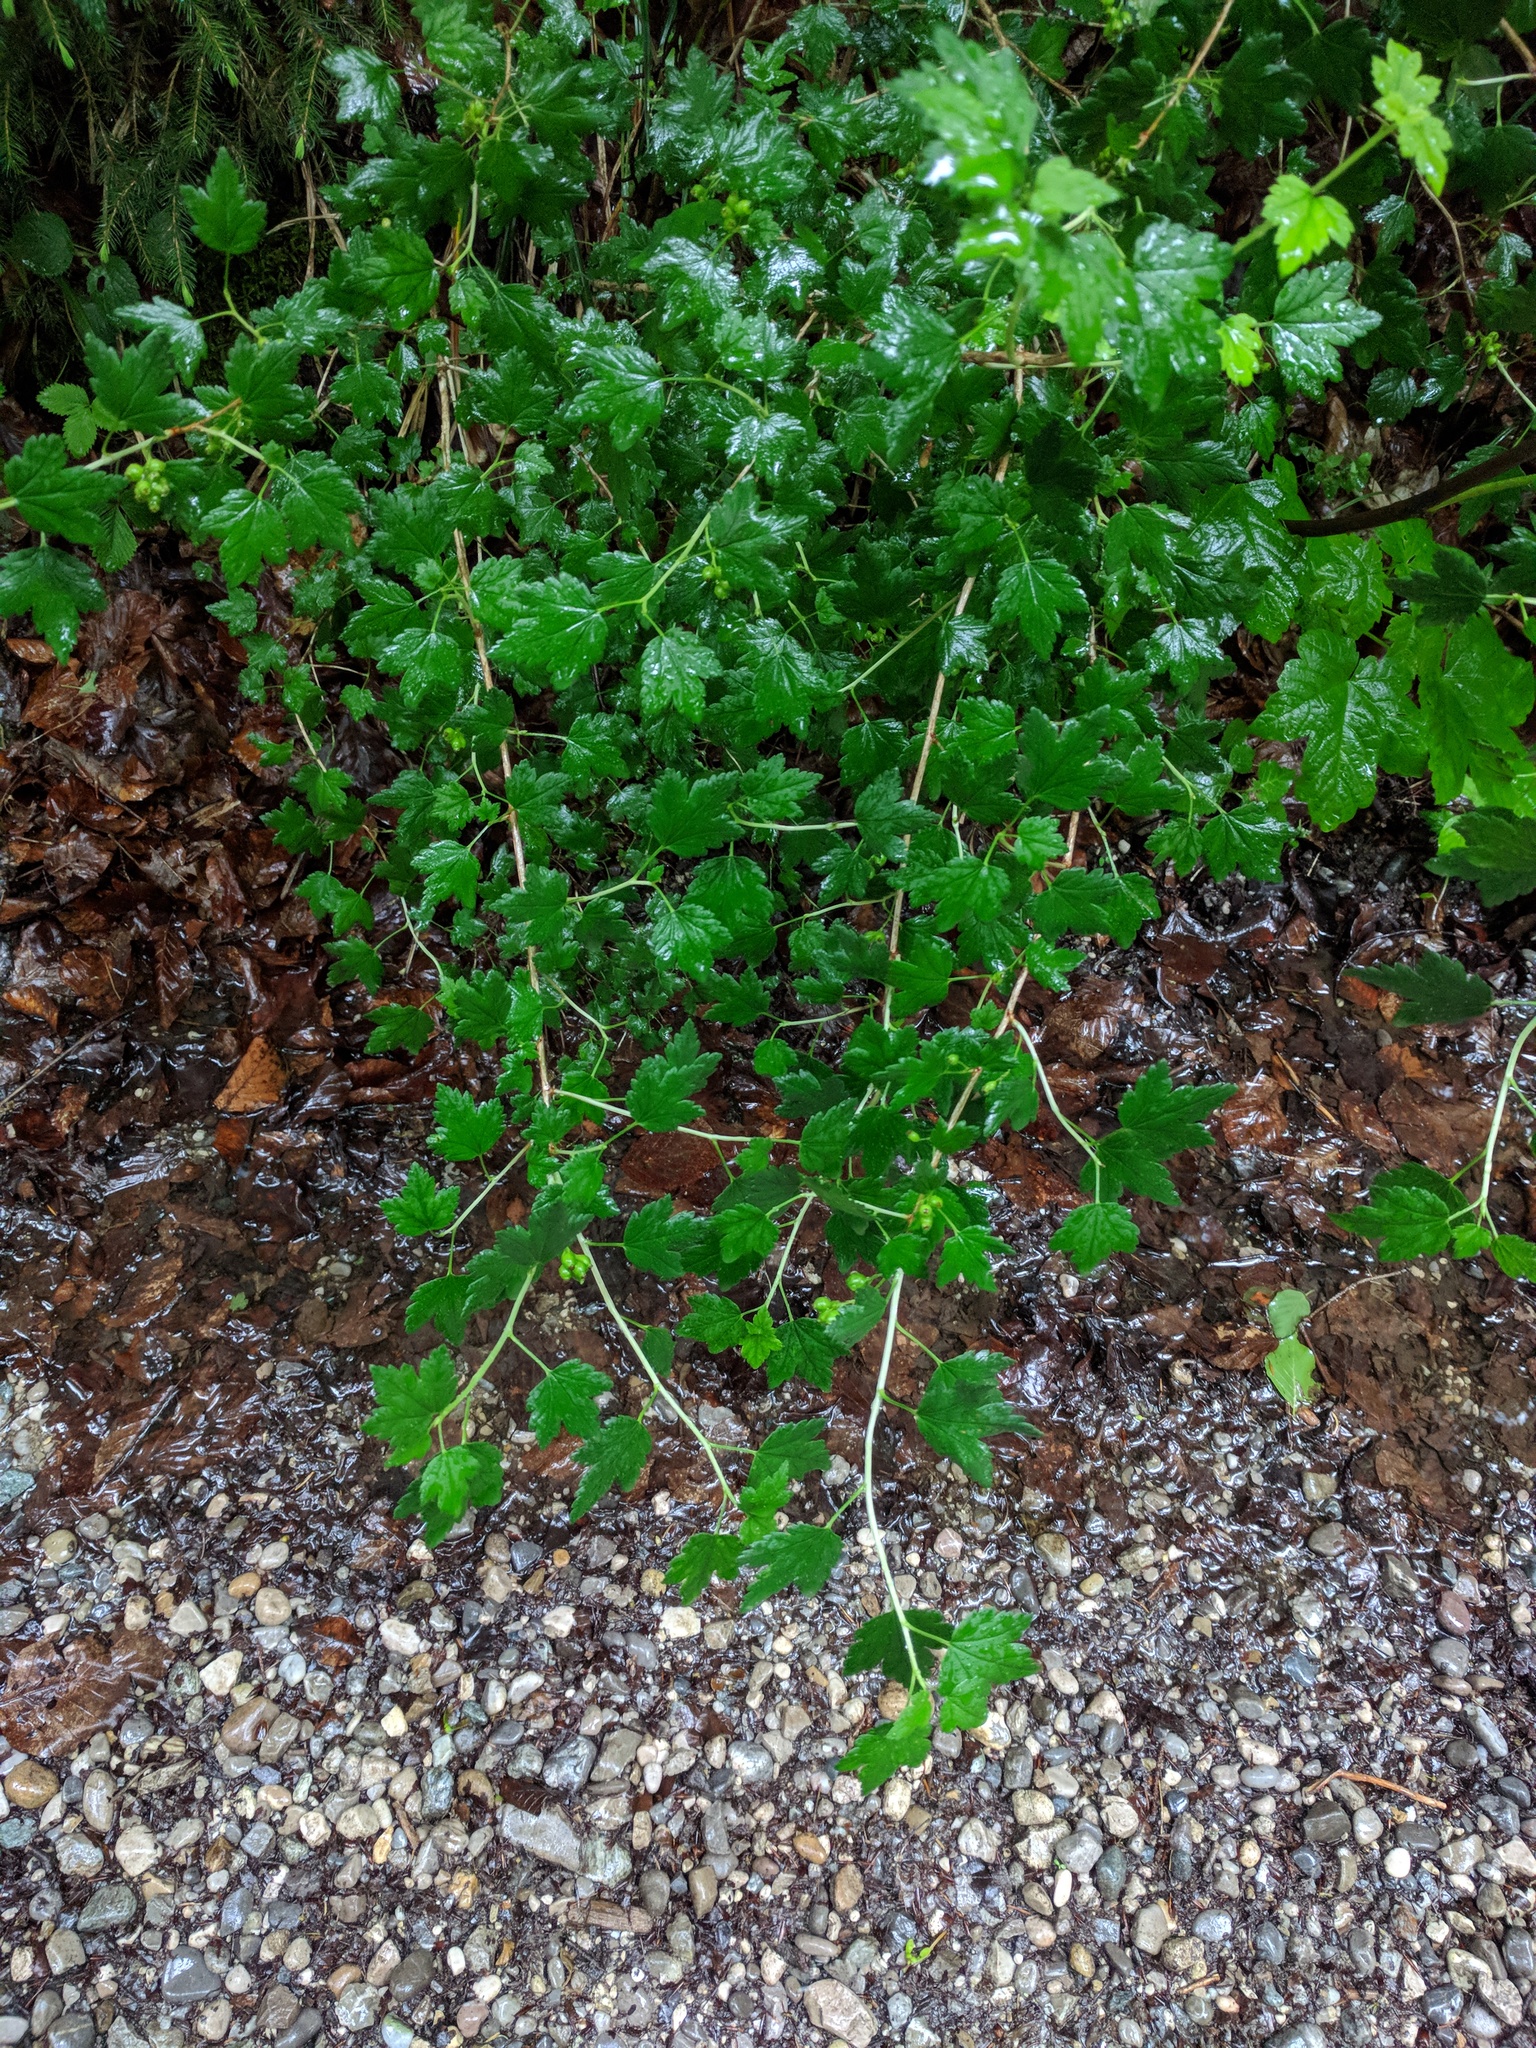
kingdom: Plantae
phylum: Tracheophyta
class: Magnoliopsida
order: Saxifragales
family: Grossulariaceae
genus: Ribes
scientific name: Ribes uva-crispa
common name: Gooseberry
